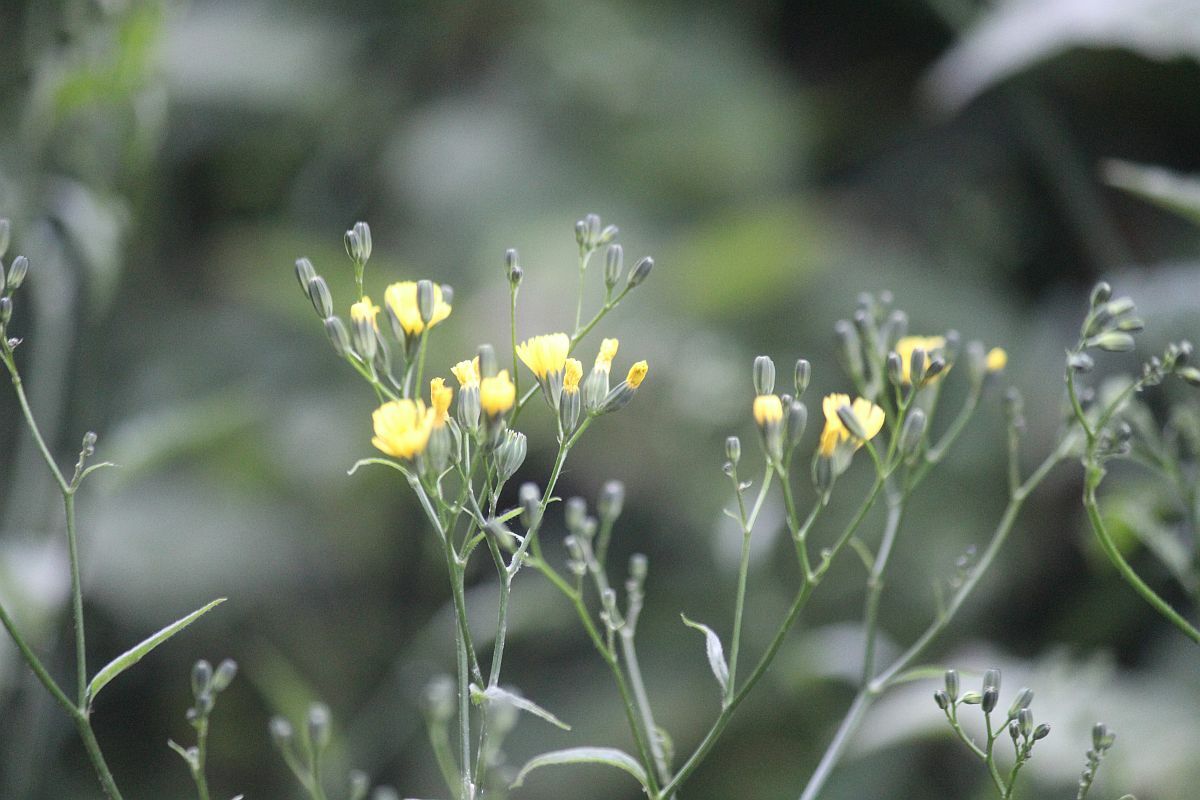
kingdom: Plantae
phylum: Tracheophyta
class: Magnoliopsida
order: Asterales
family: Asteraceae
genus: Lapsana
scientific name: Lapsana communis
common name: Nipplewort
